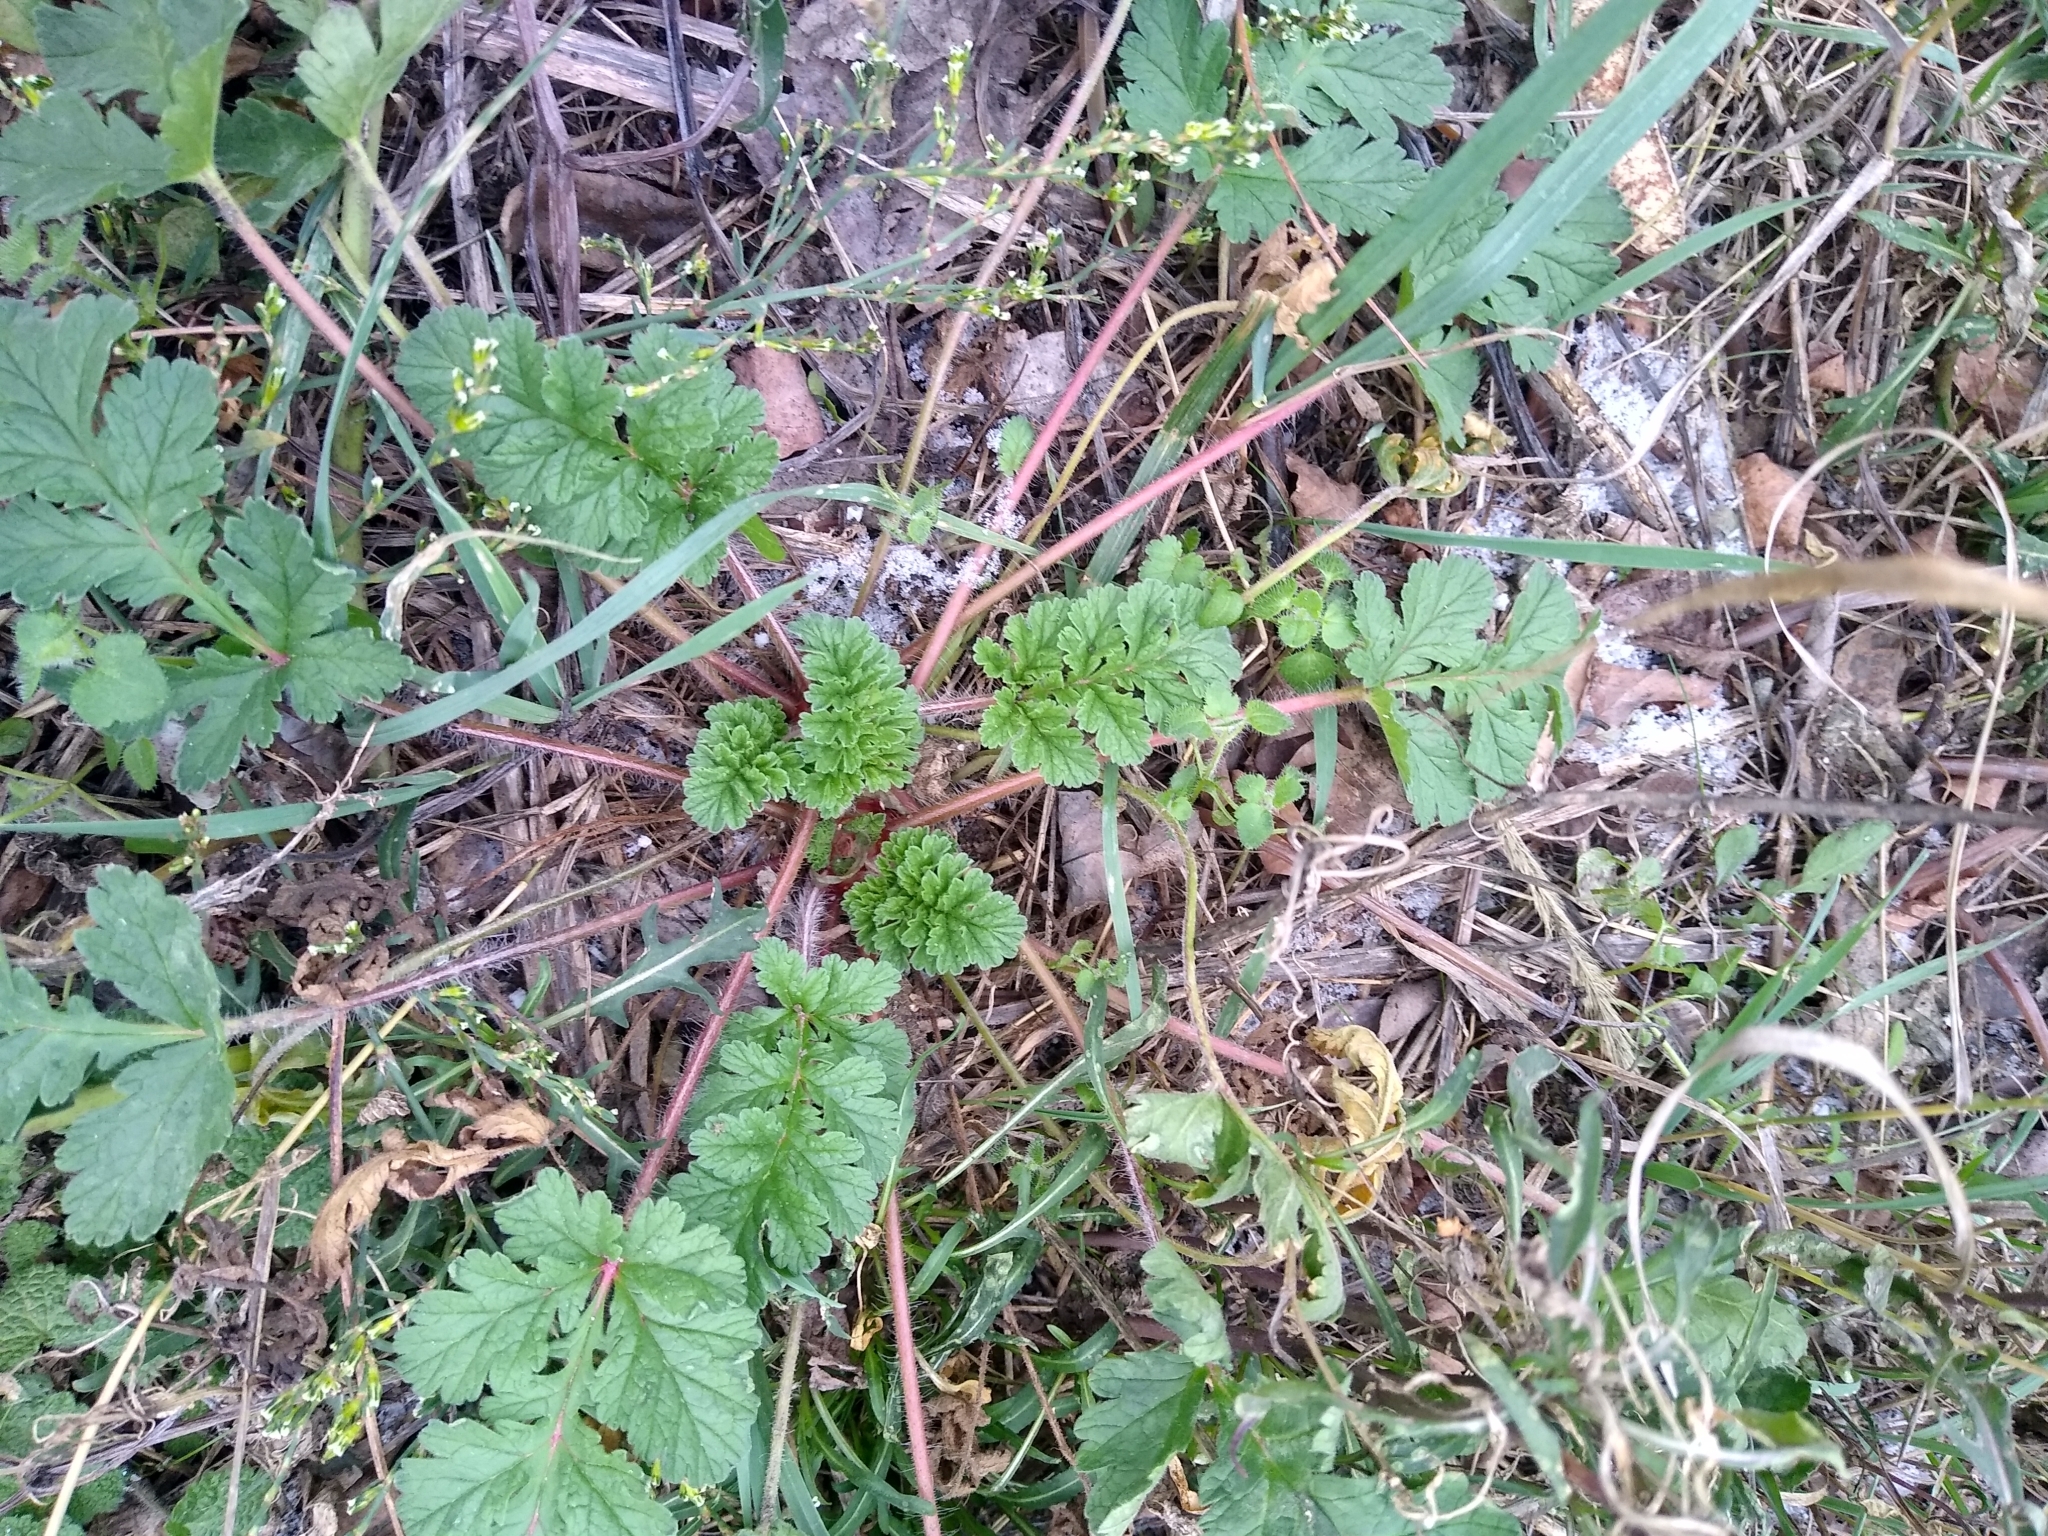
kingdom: Plantae
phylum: Tracheophyta
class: Magnoliopsida
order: Geraniales
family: Geraniaceae
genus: Erodium
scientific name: Erodium ciconium
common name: Common stork's bill
